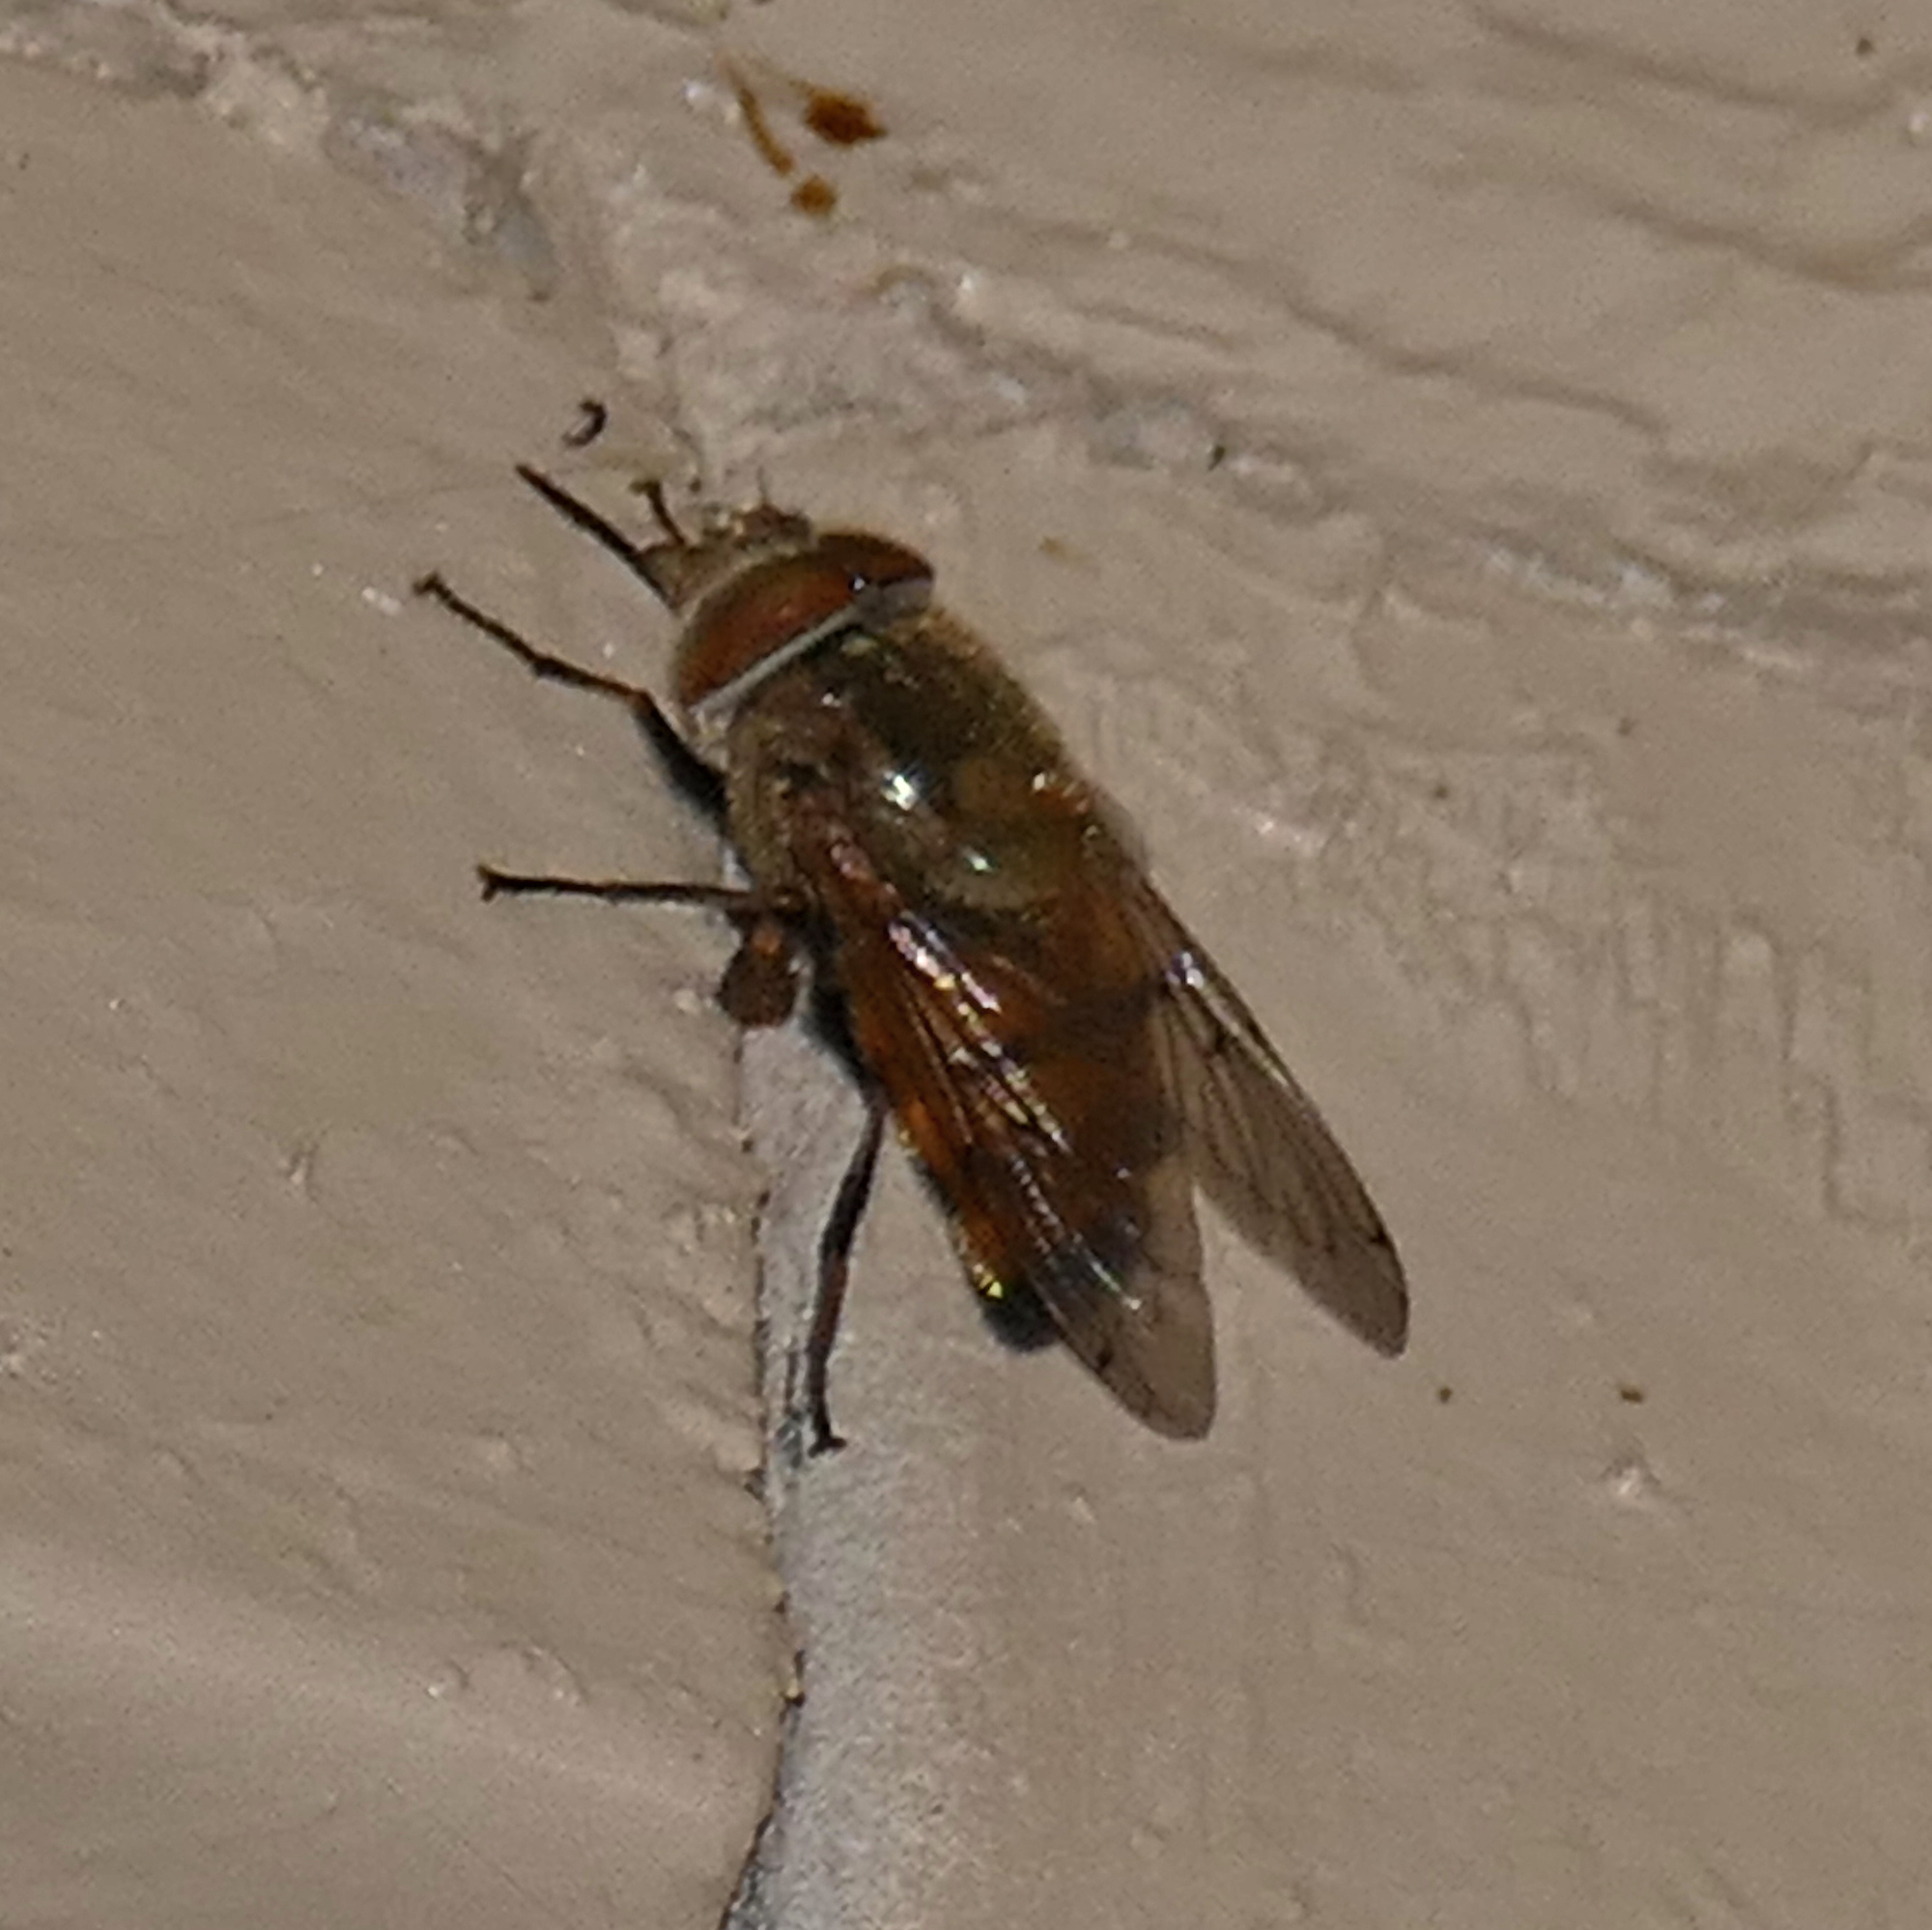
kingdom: Animalia
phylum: Arthropoda
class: Insecta
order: Diptera
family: Syrphidae
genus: Copestylum
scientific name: Copestylum haagii
